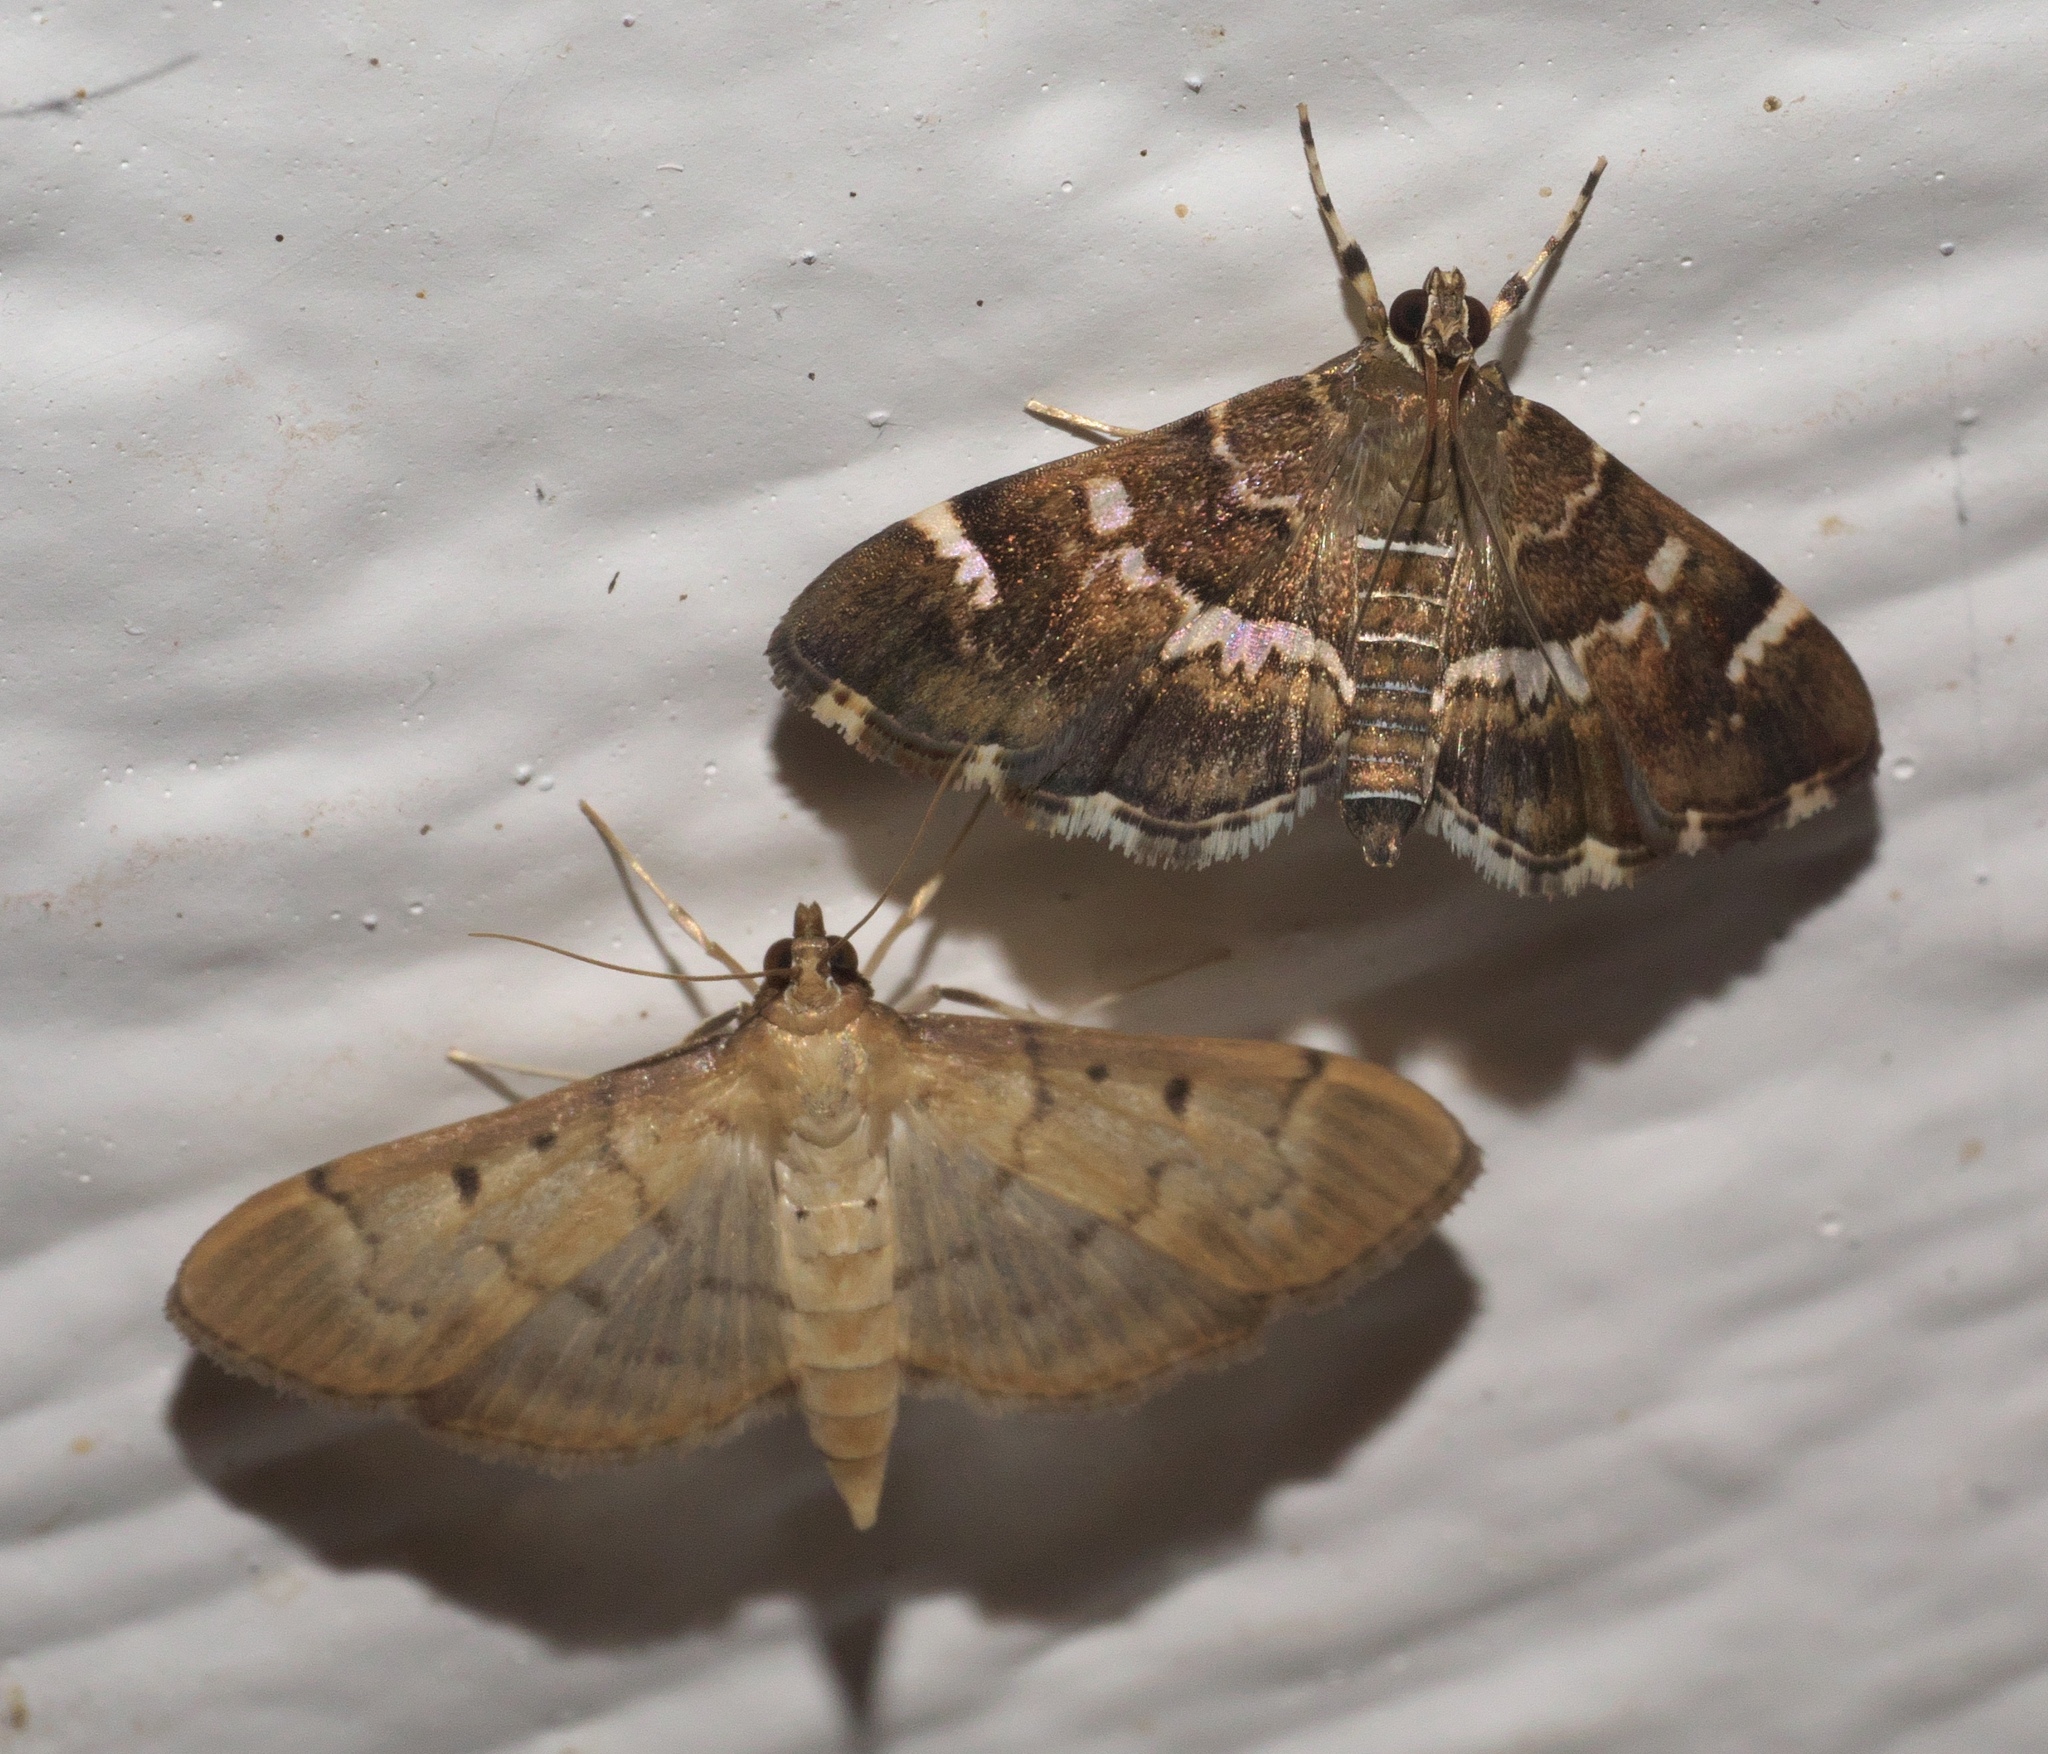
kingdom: Animalia
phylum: Arthropoda
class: Insecta
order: Lepidoptera
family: Crambidae
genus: Hymenia
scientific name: Hymenia perspectalis
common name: Spotted beet webworm
